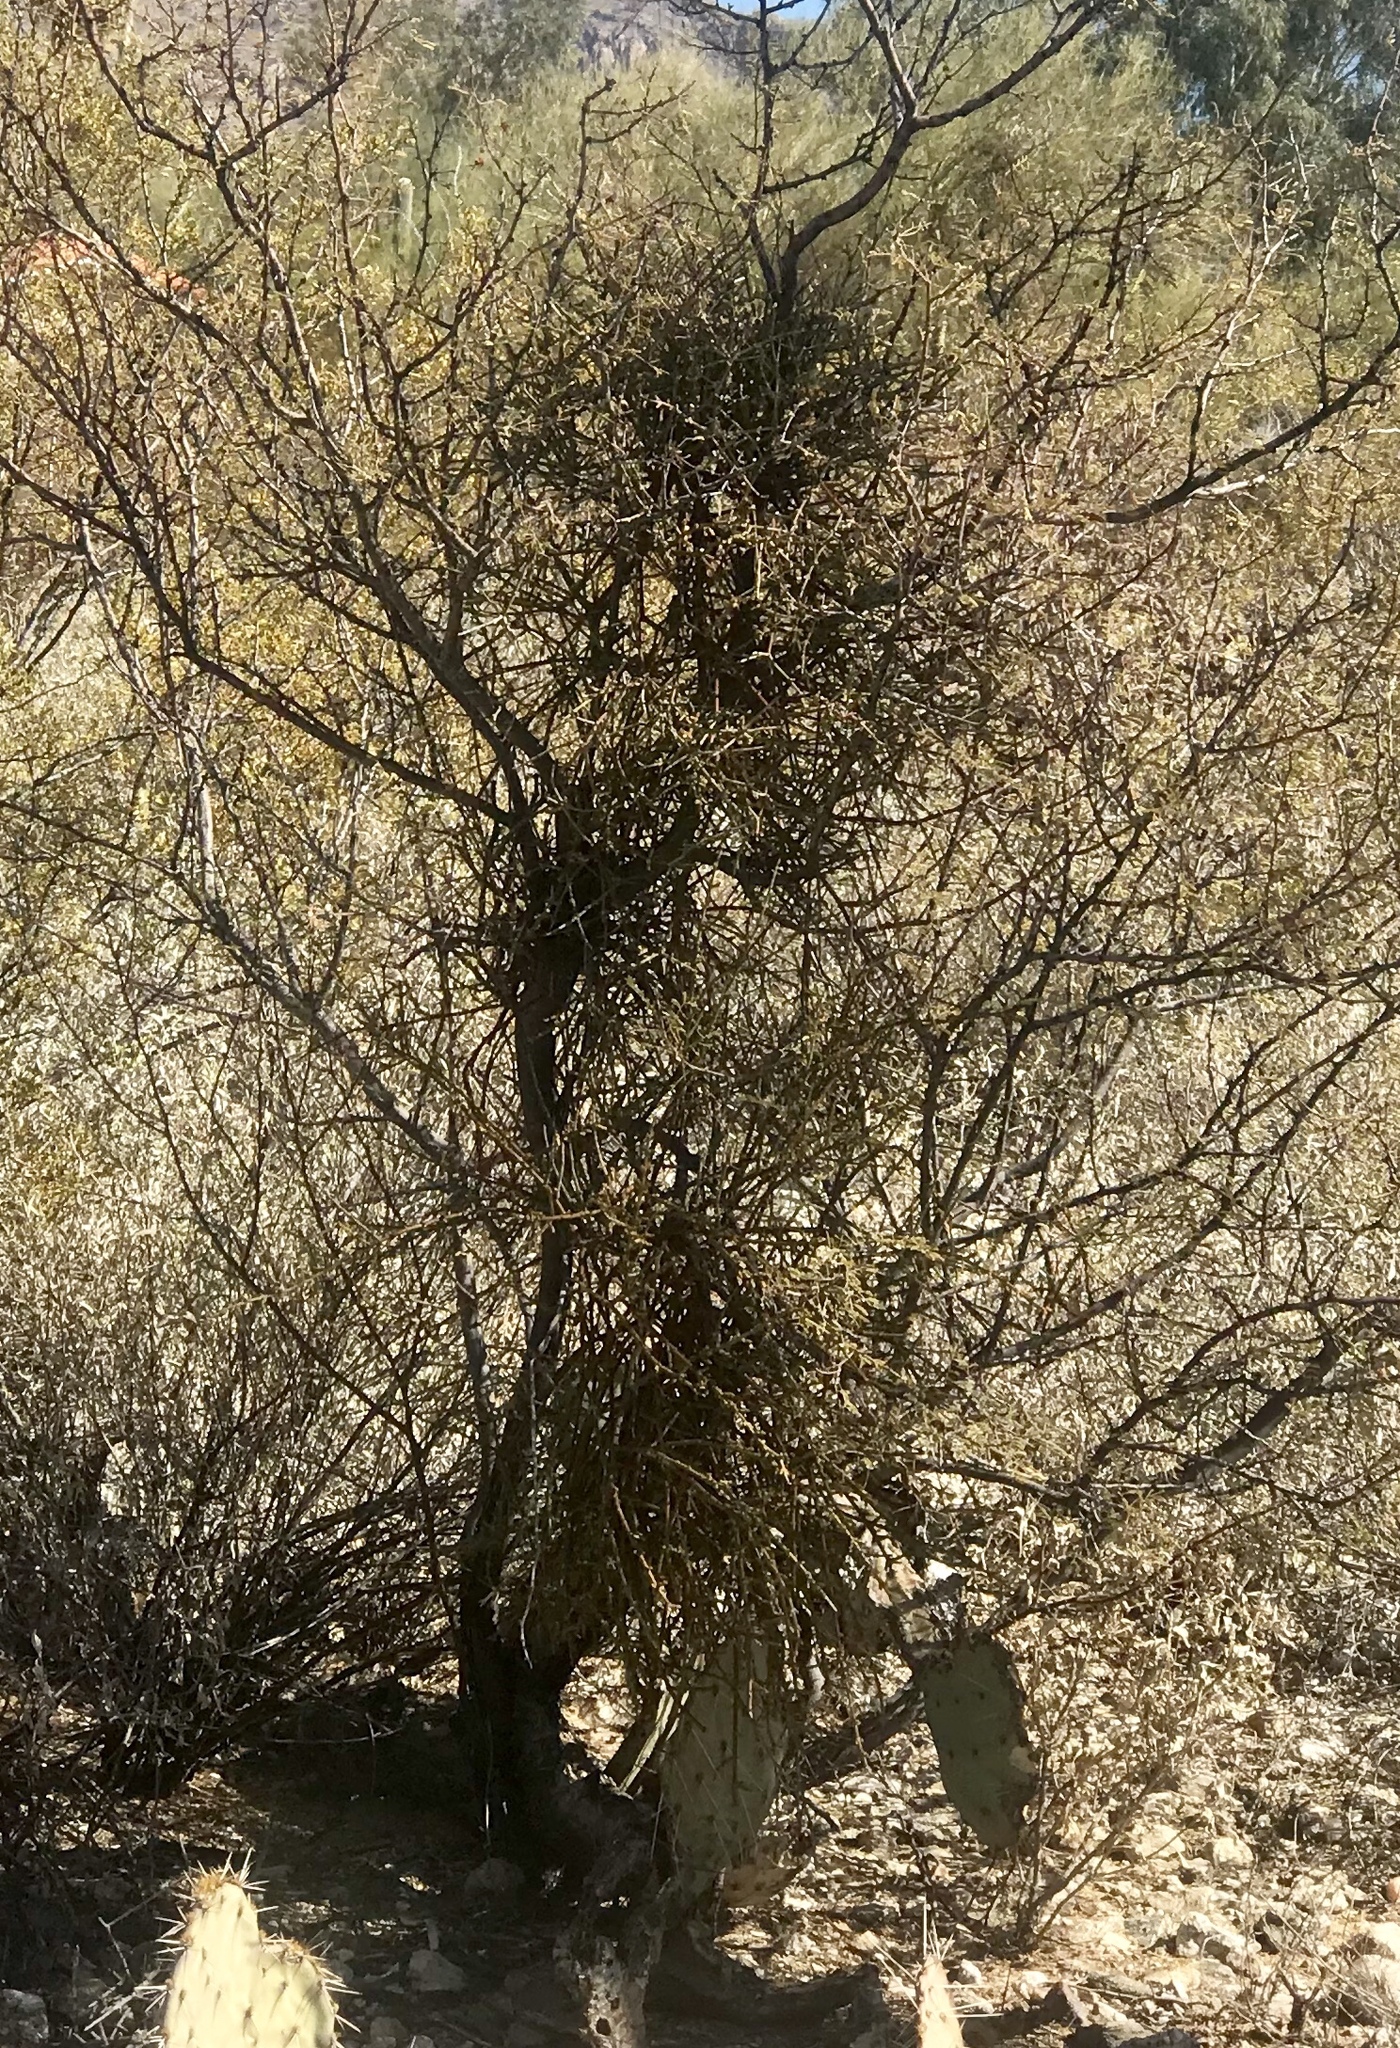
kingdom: Plantae
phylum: Tracheophyta
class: Magnoliopsida
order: Santalales
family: Viscaceae
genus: Phoradendron
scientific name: Phoradendron californicum
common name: Acacia mistletoe
